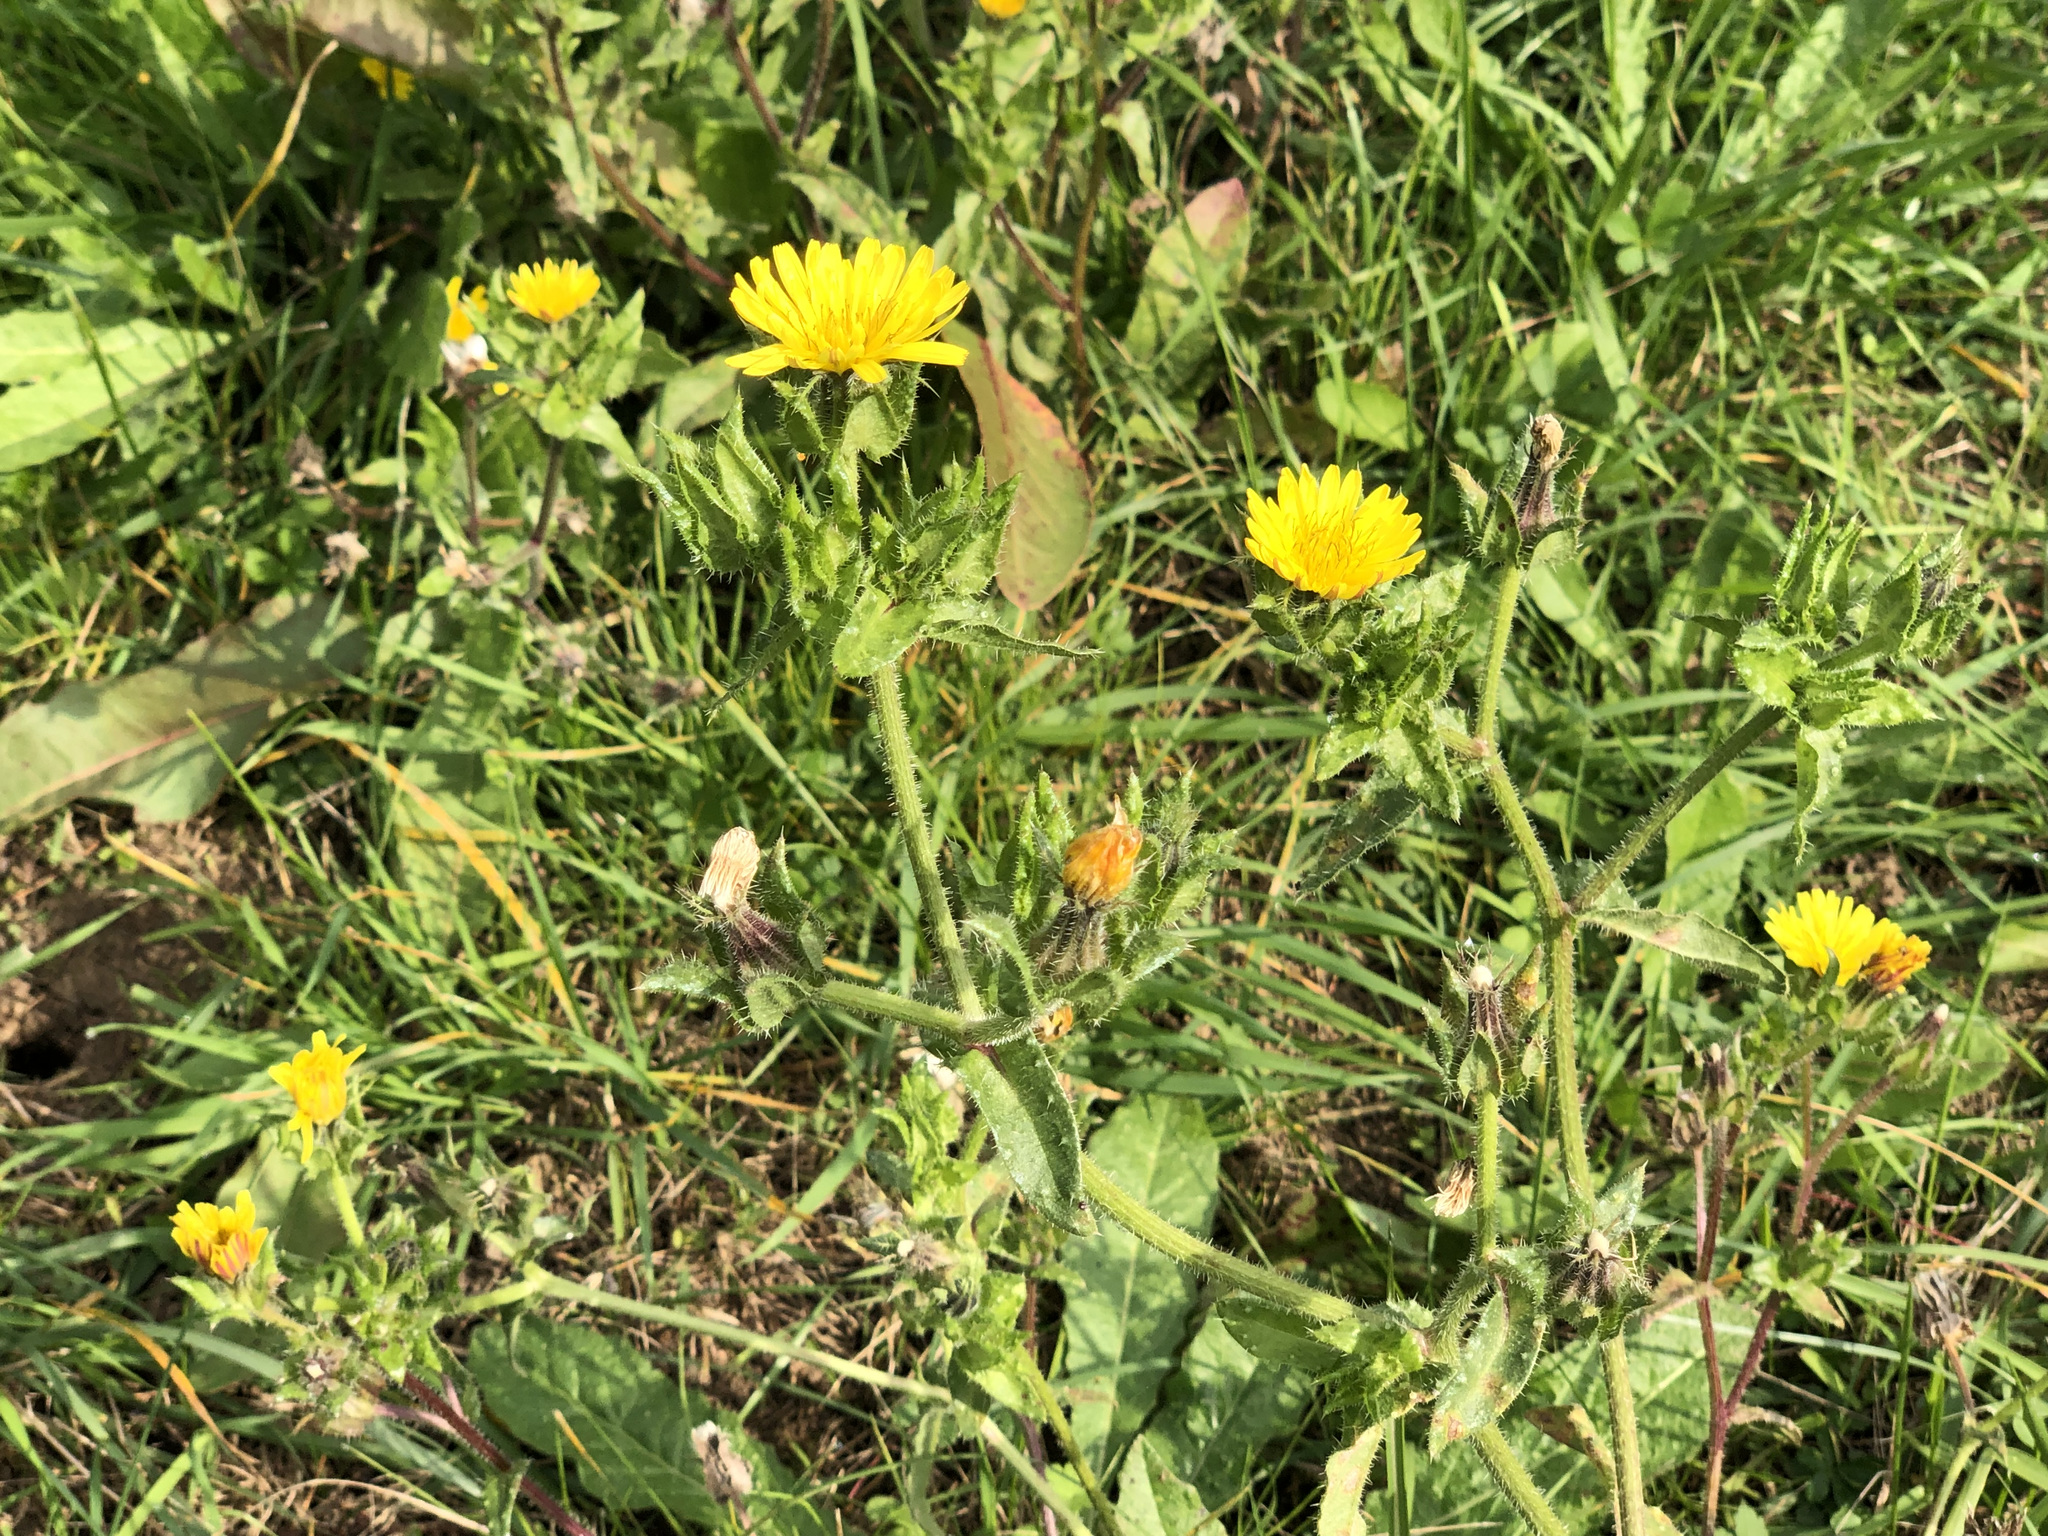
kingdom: Plantae
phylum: Tracheophyta
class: Magnoliopsida
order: Asterales
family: Asteraceae
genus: Helminthotheca
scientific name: Helminthotheca echioides
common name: Ox-tongue
